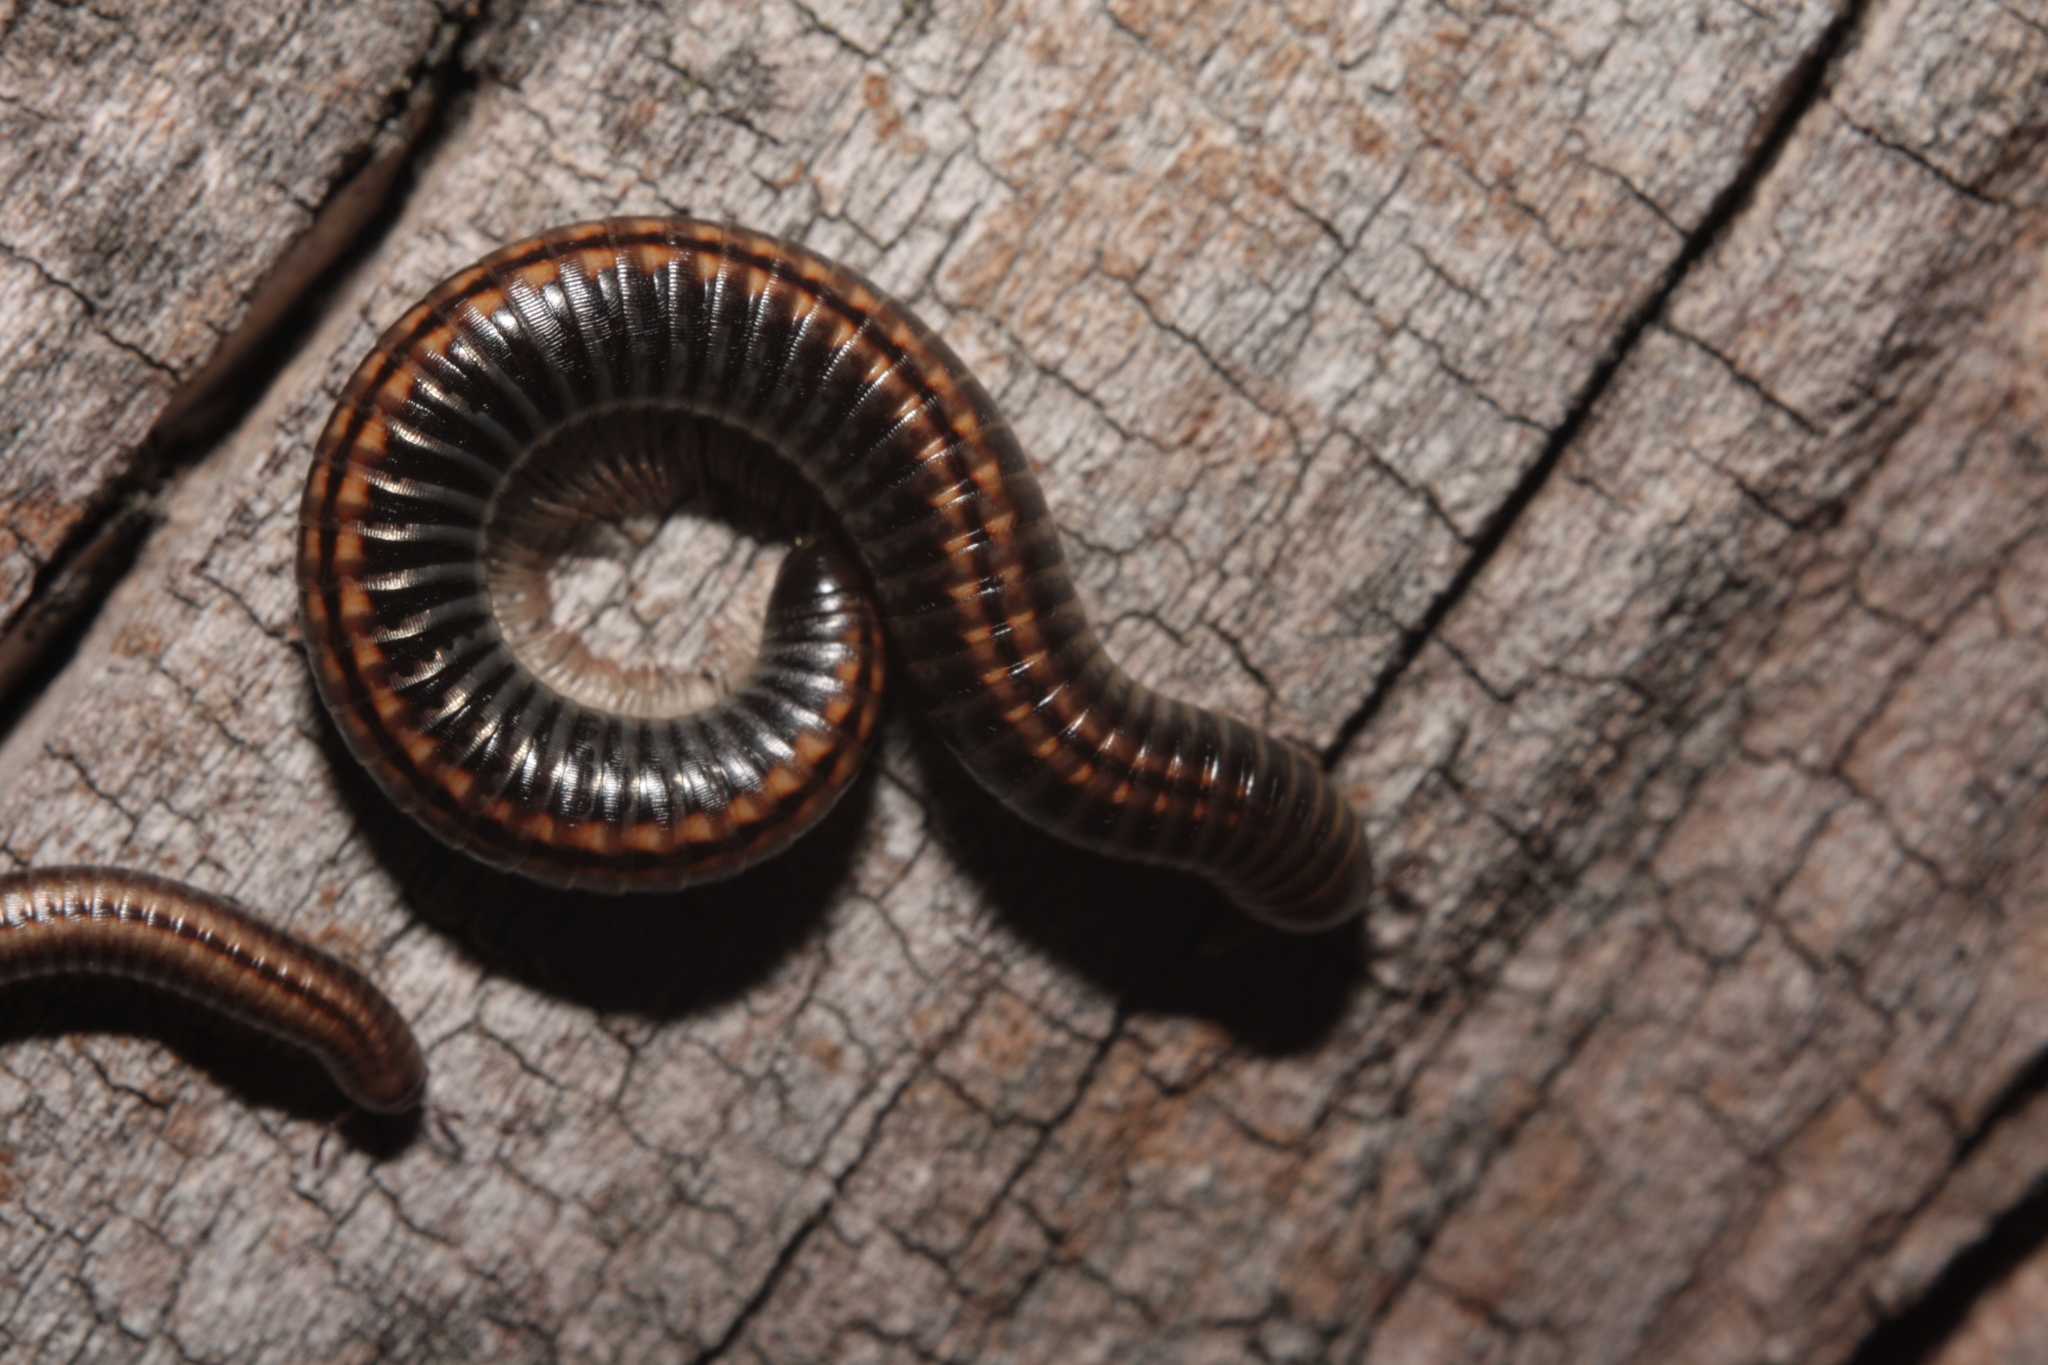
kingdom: Animalia
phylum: Arthropoda
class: Diplopoda
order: Julida
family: Julidae
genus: Ommatoiulus
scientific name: Ommatoiulus sabulosus
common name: Striped millipede
